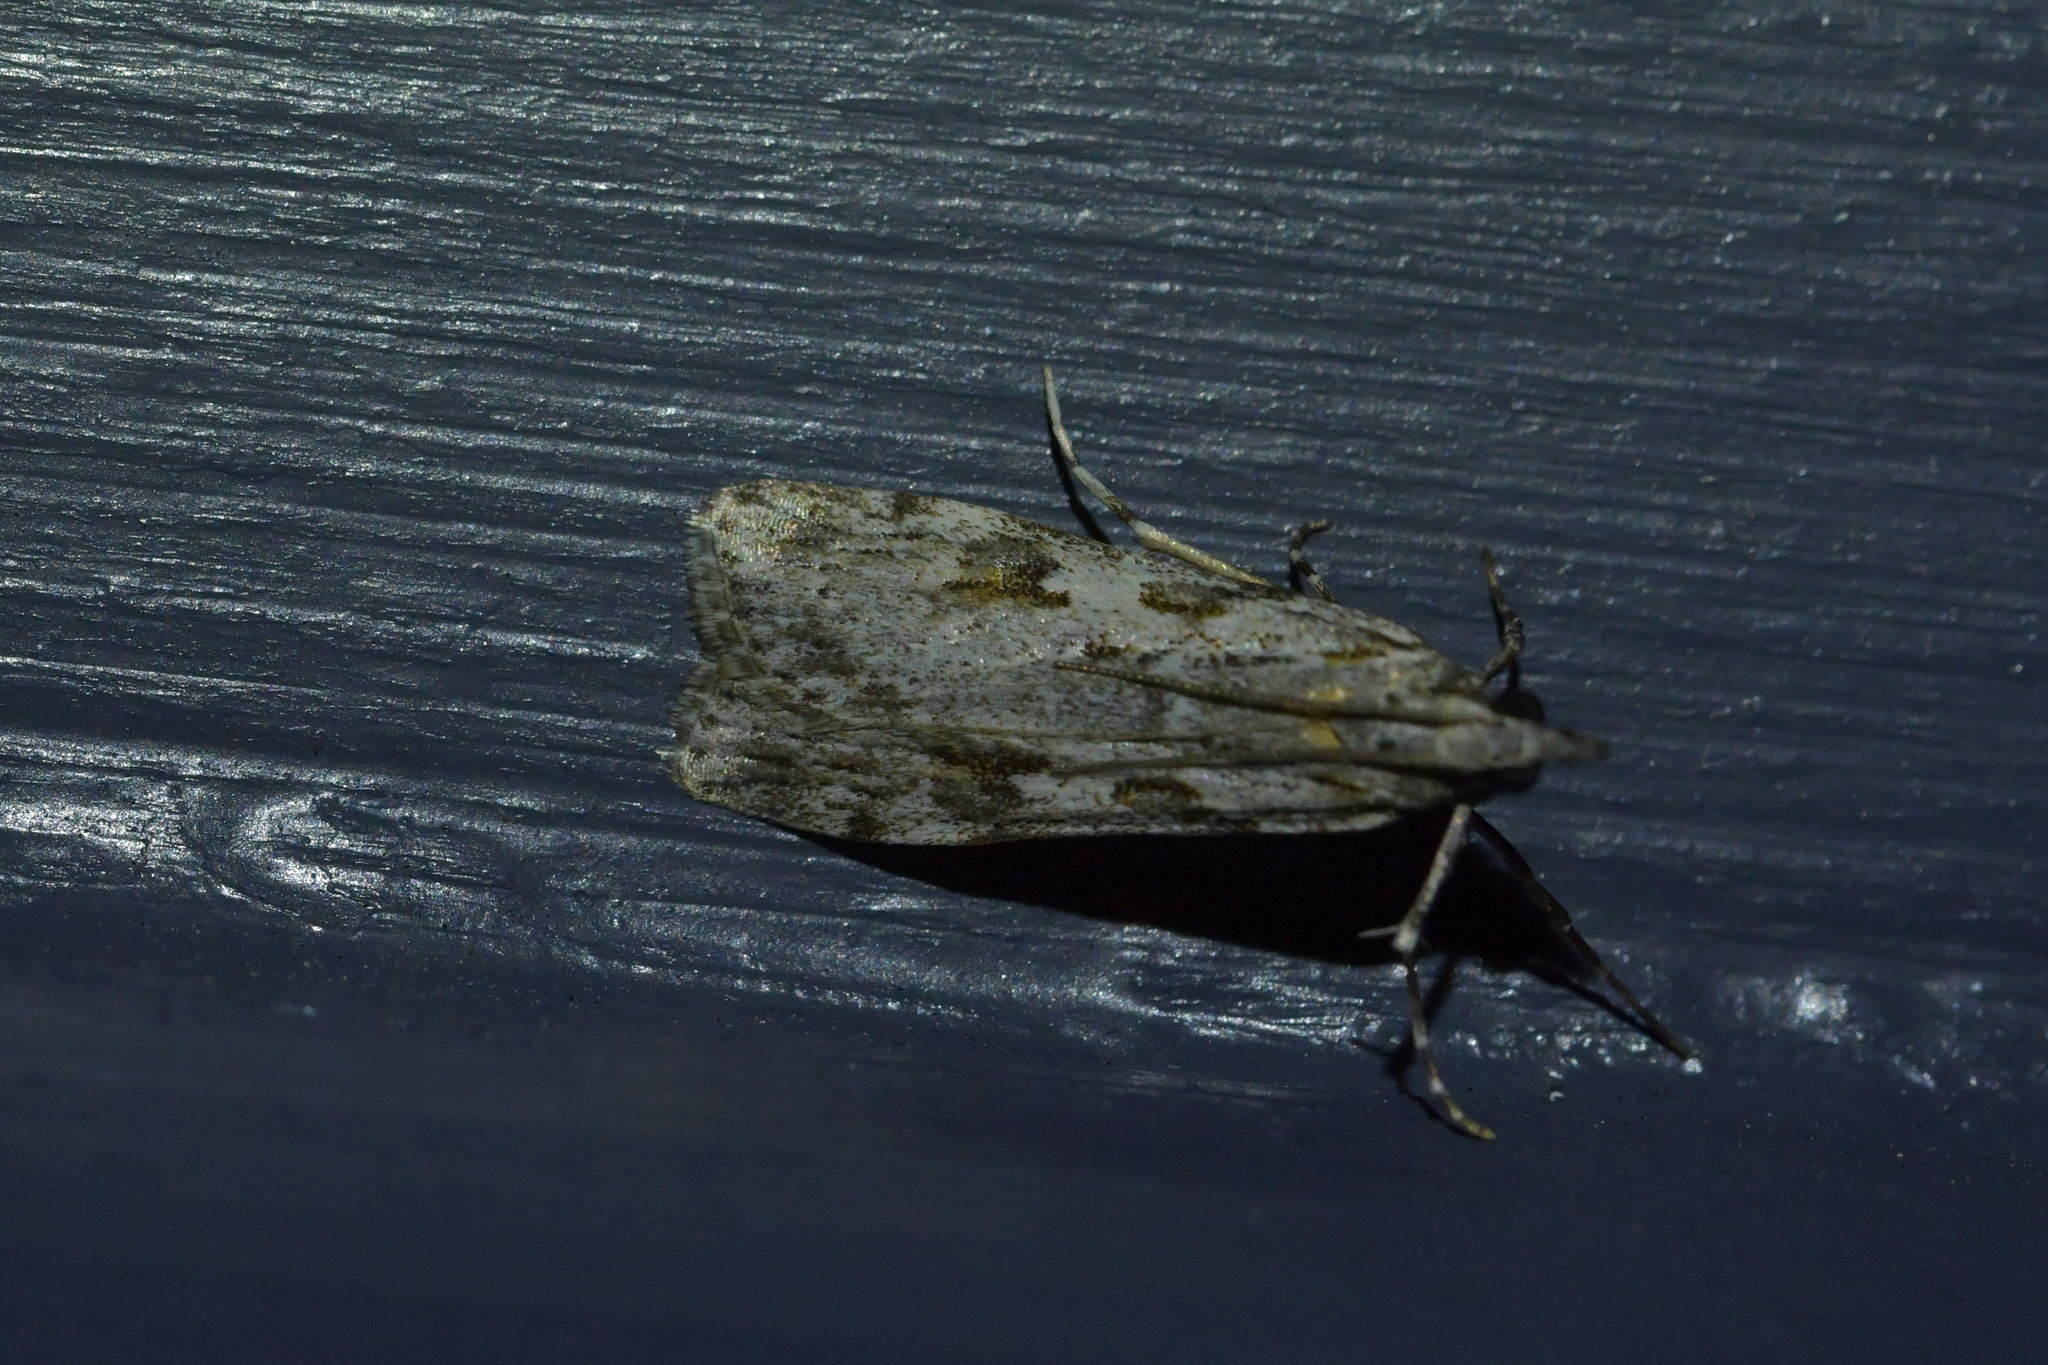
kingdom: Animalia
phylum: Arthropoda
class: Insecta
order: Lepidoptera
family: Crambidae
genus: Scoparia
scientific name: Scoparia halopis
